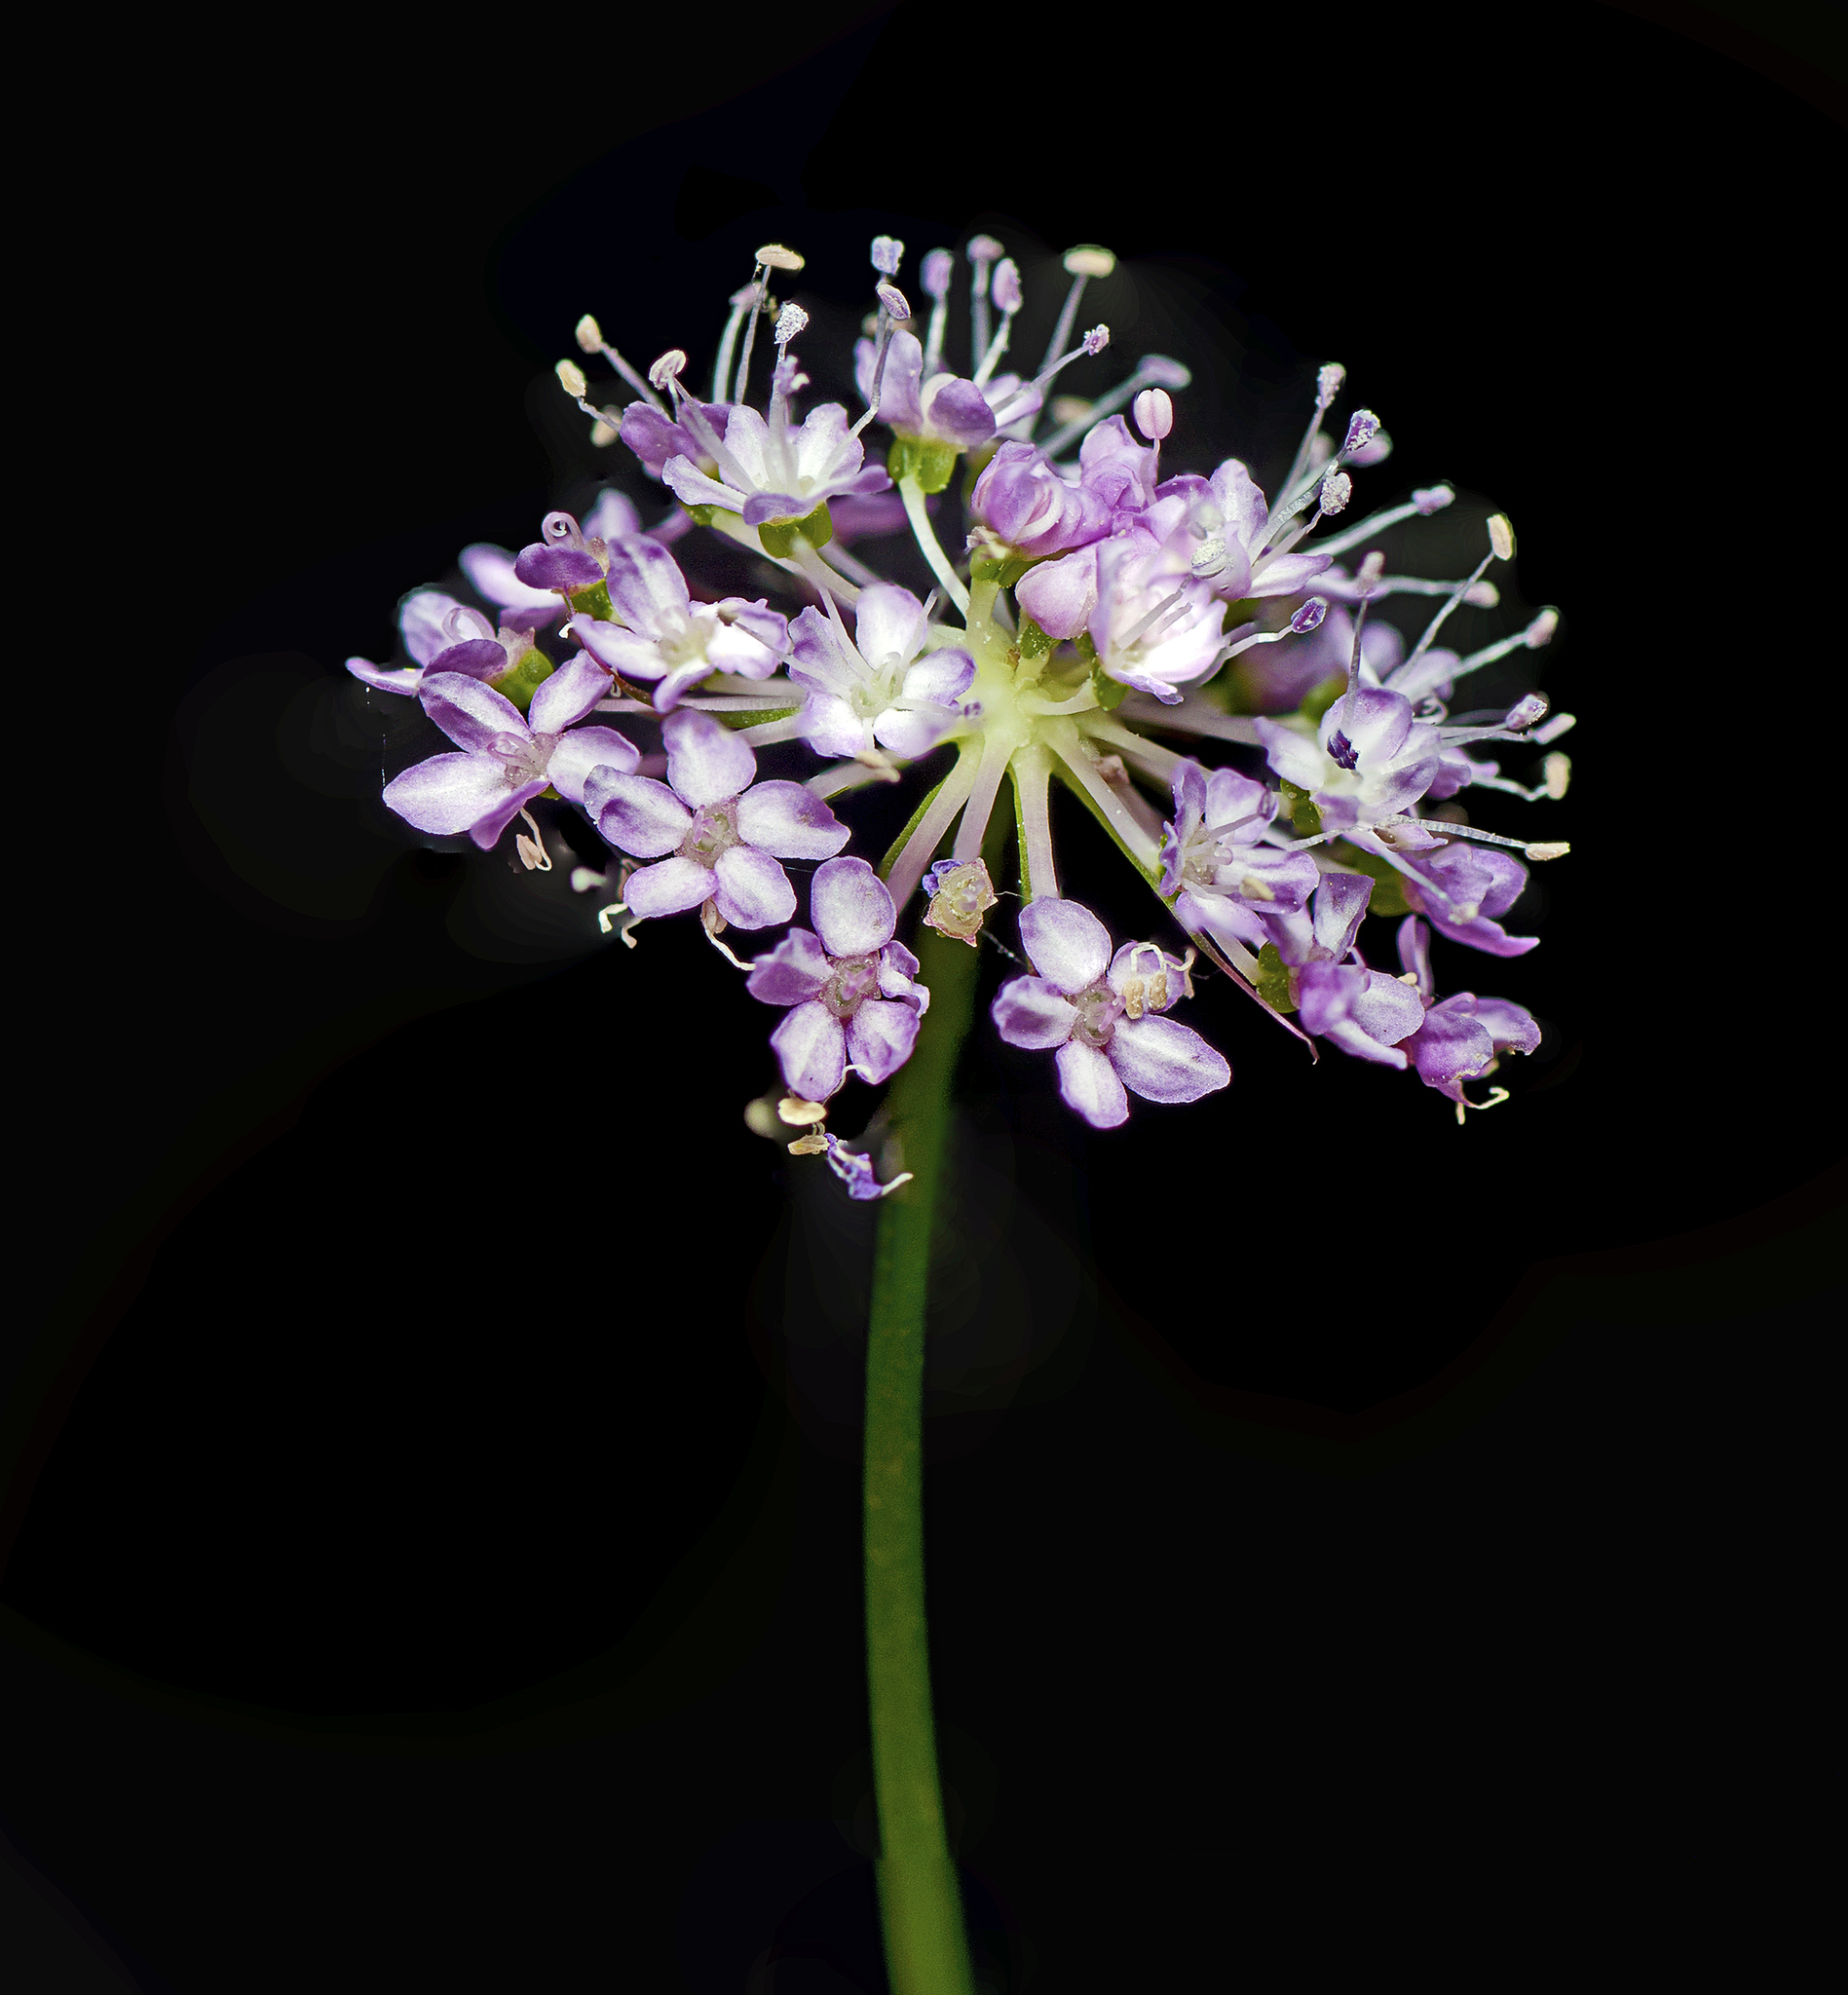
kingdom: Plantae
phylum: Tracheophyta
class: Magnoliopsida
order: Apiales
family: Araliaceae
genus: Trachymene
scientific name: Trachymene procumbens
